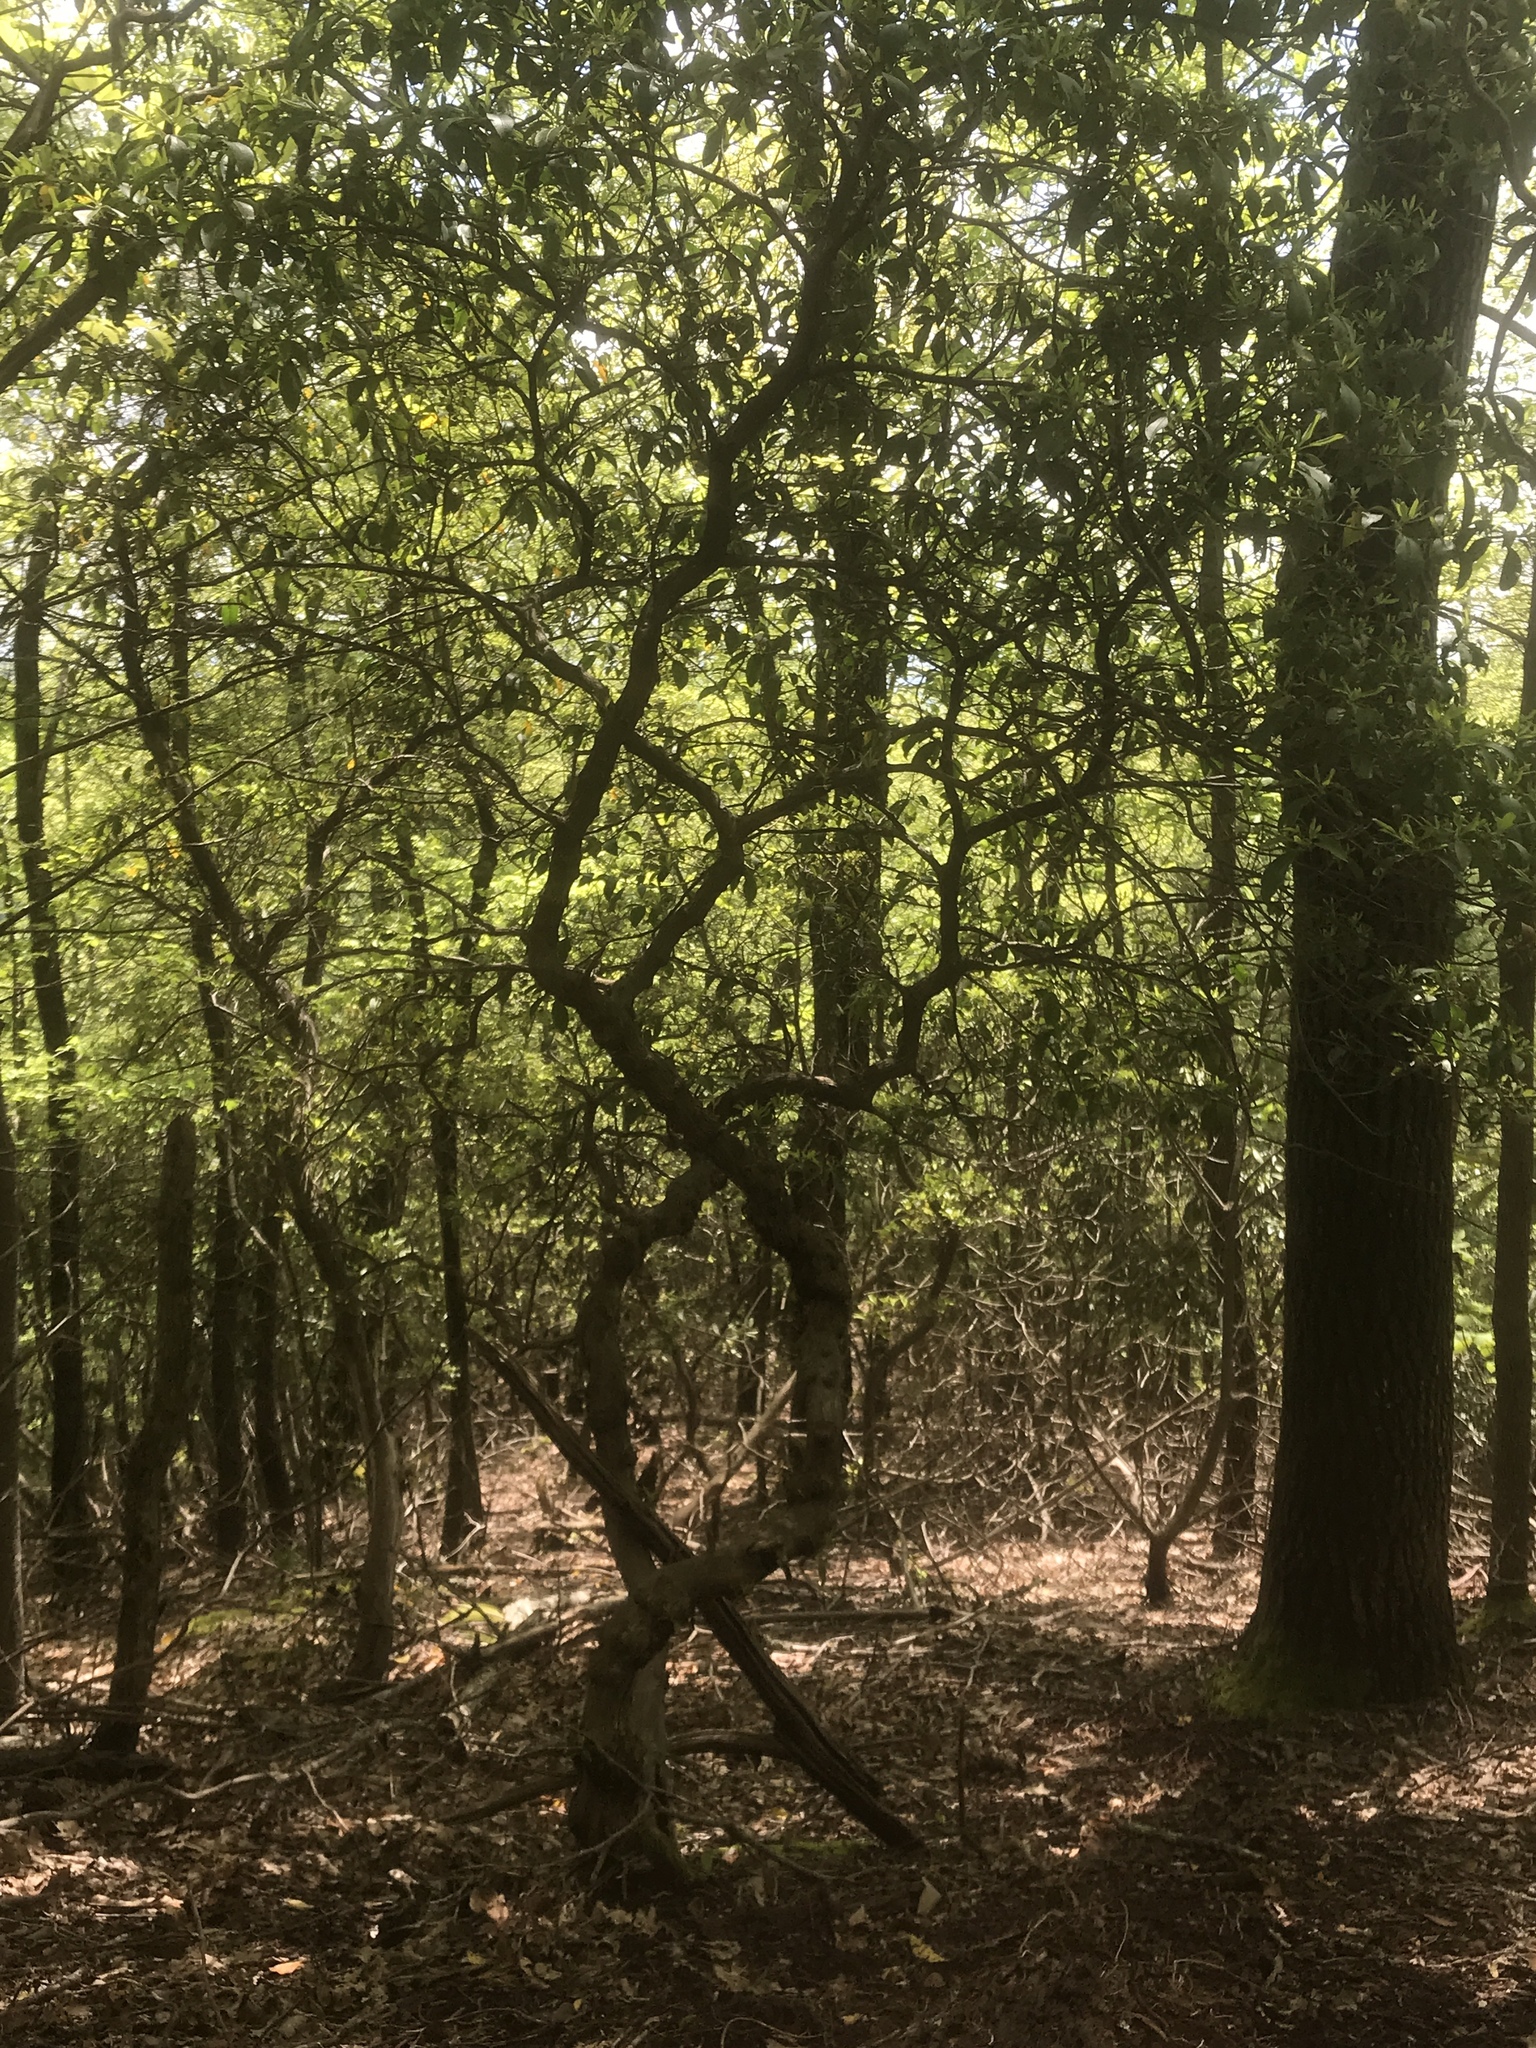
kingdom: Plantae
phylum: Tracheophyta
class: Magnoliopsida
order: Ericales
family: Ericaceae
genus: Kalmia
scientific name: Kalmia latifolia
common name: Mountain-laurel
